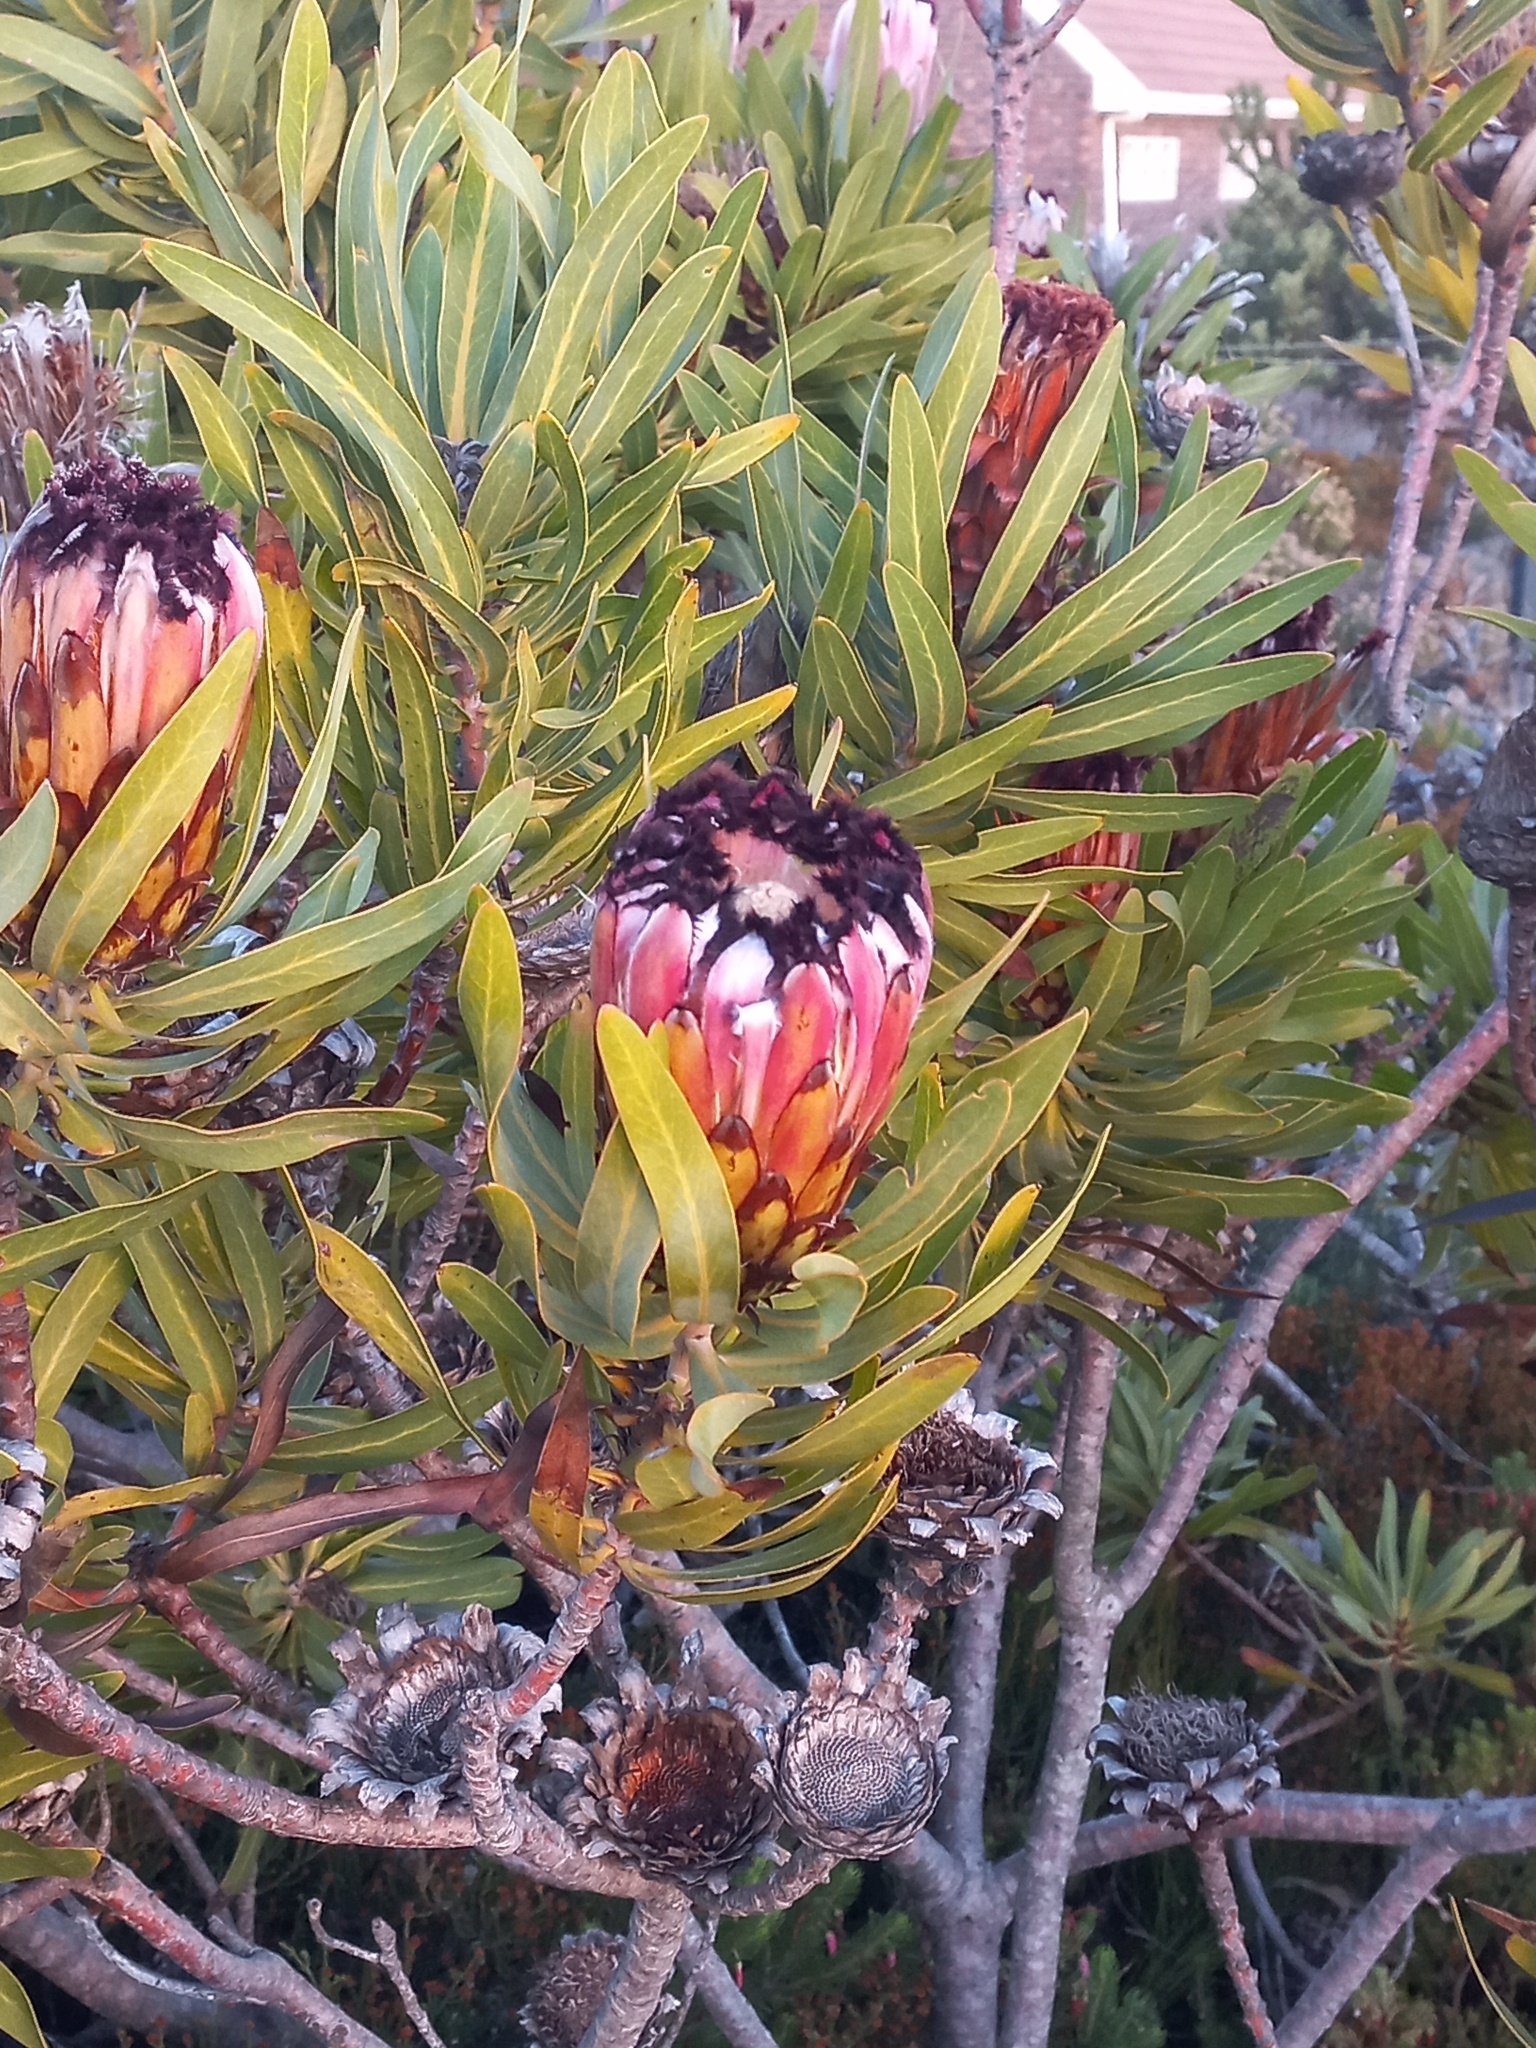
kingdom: Plantae
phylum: Tracheophyta
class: Magnoliopsida
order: Proteales
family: Proteaceae
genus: Protea
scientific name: Protea neriifolia
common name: Blue sugarbush
